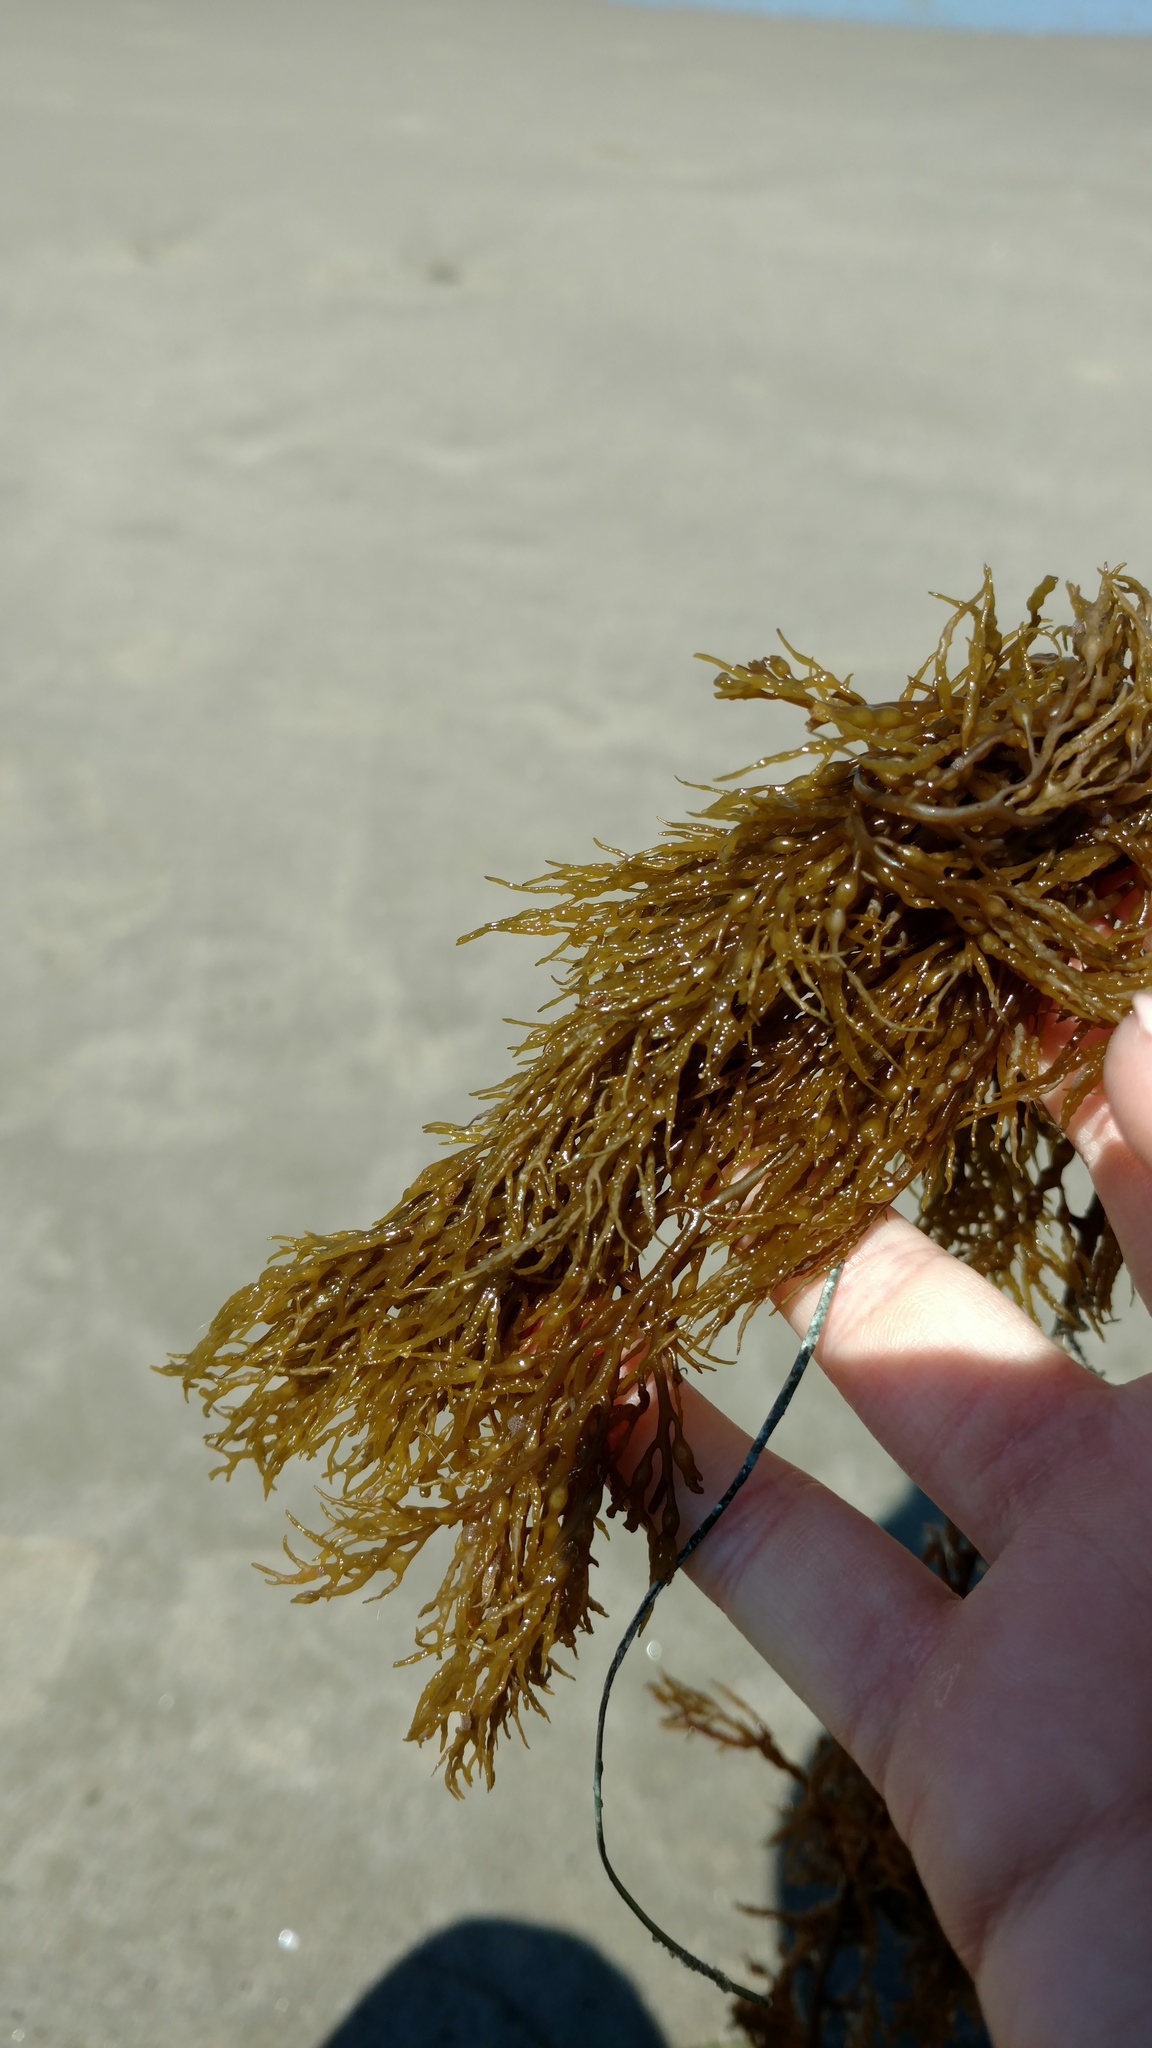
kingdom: Chromista
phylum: Ochrophyta
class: Phaeophyceae
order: Fucales
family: Sargassaceae
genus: Stephanocystis
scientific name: Stephanocystis
